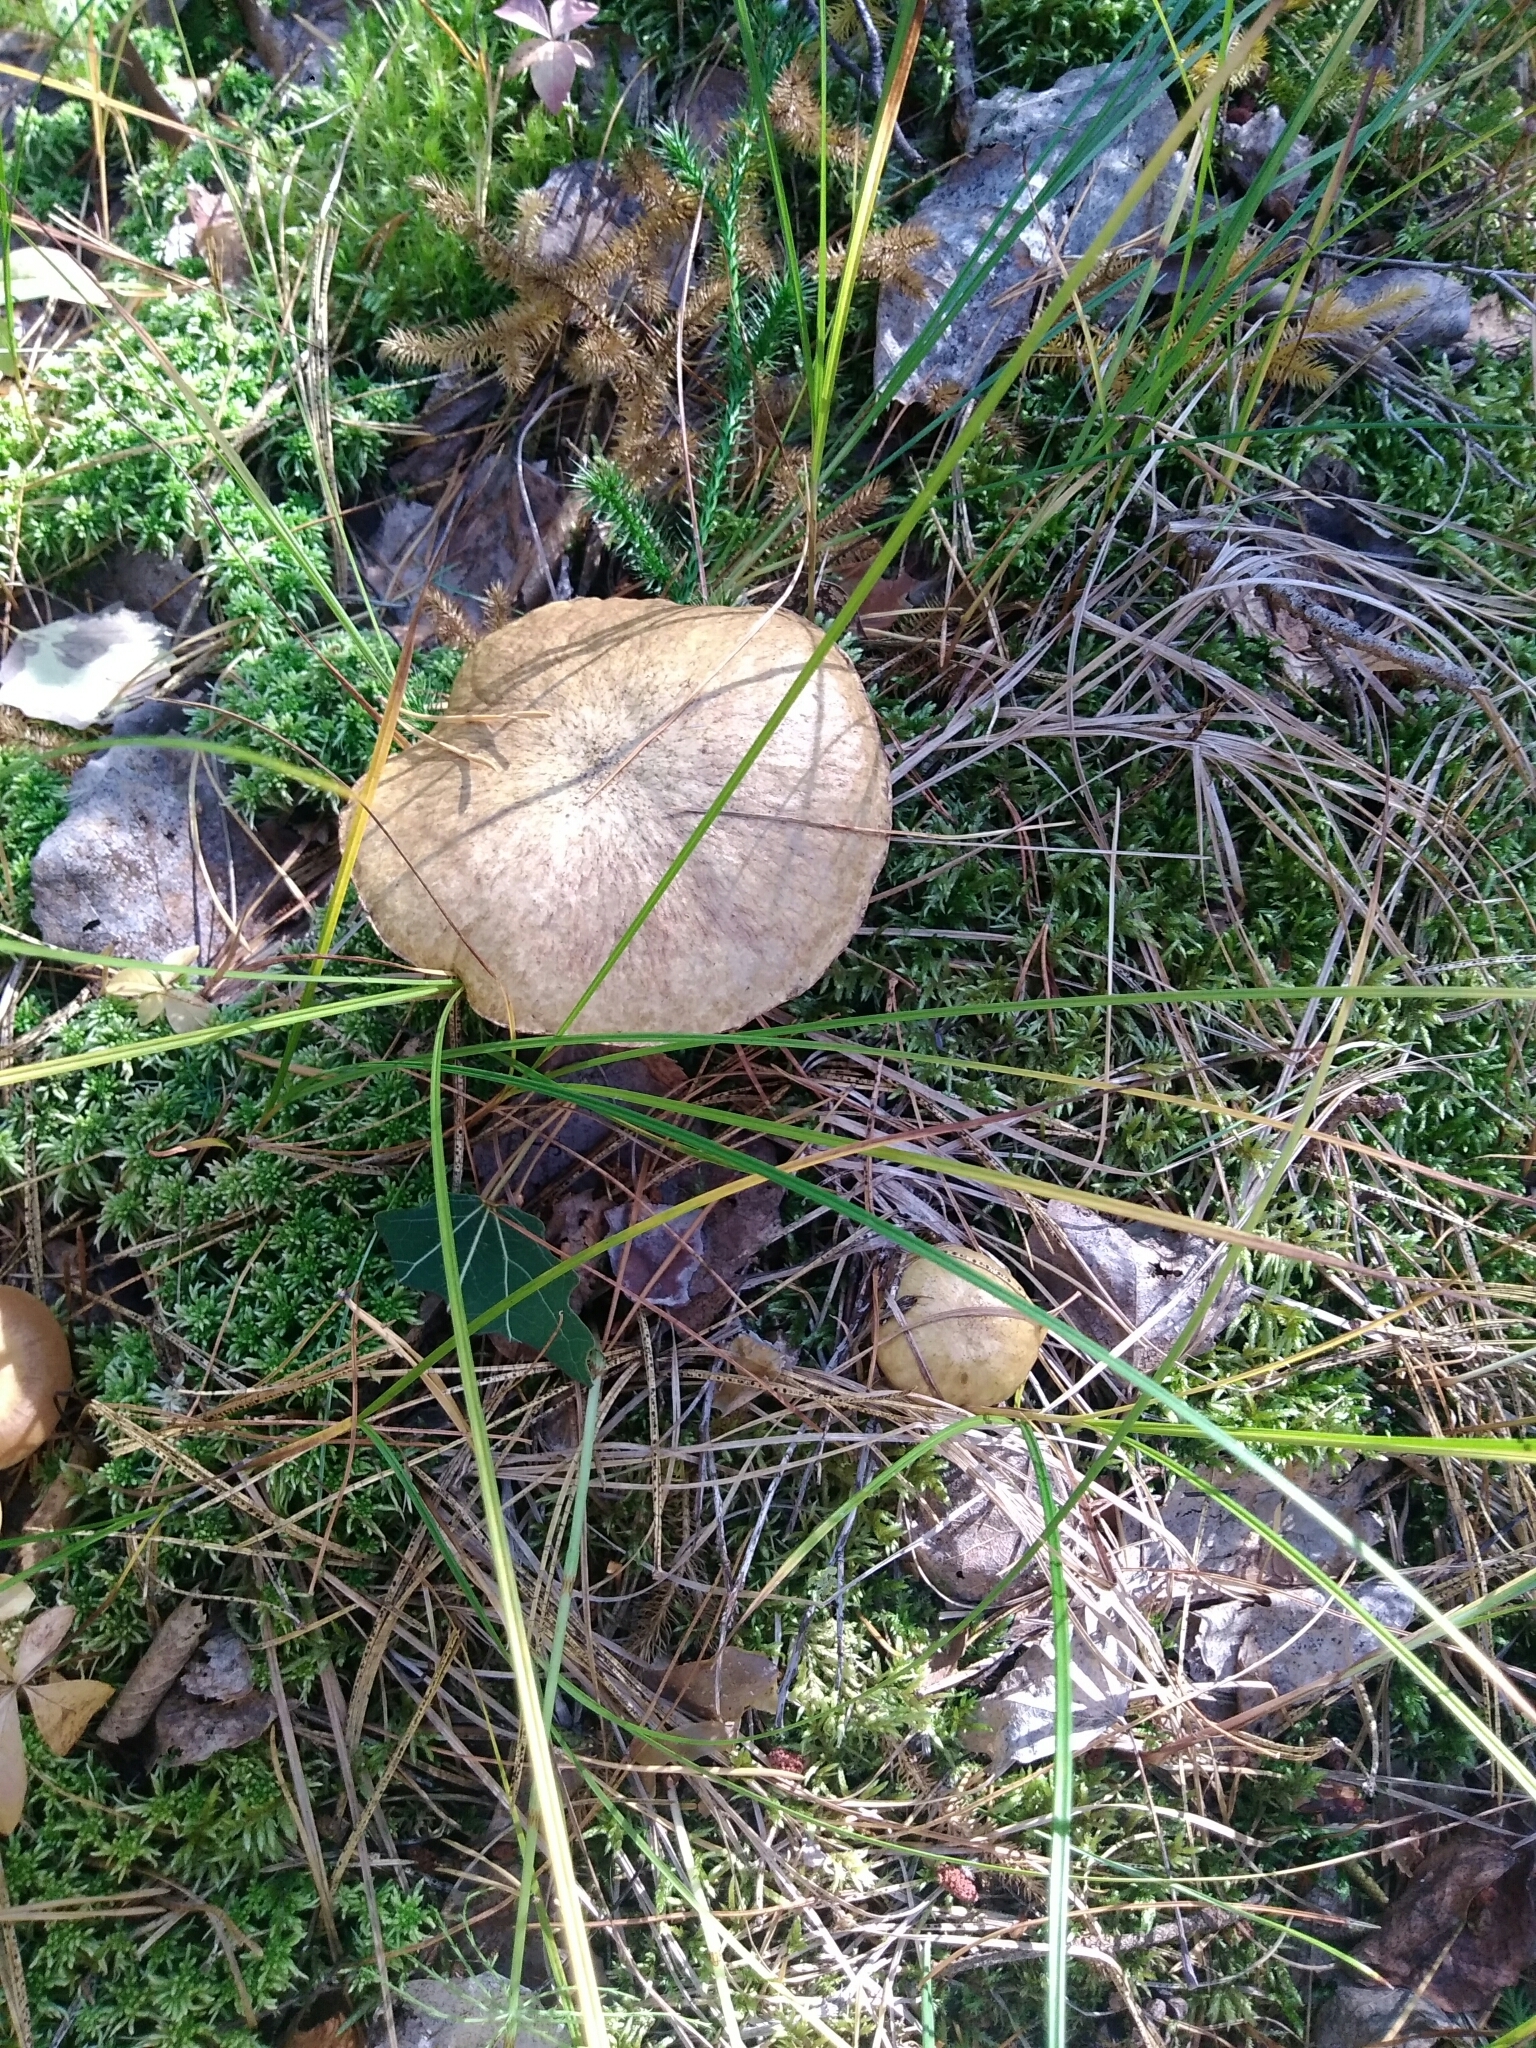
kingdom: Fungi
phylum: Basidiomycota
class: Agaricomycetes
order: Boletales
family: Suillaceae
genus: Suillus
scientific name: Suillus acidus
